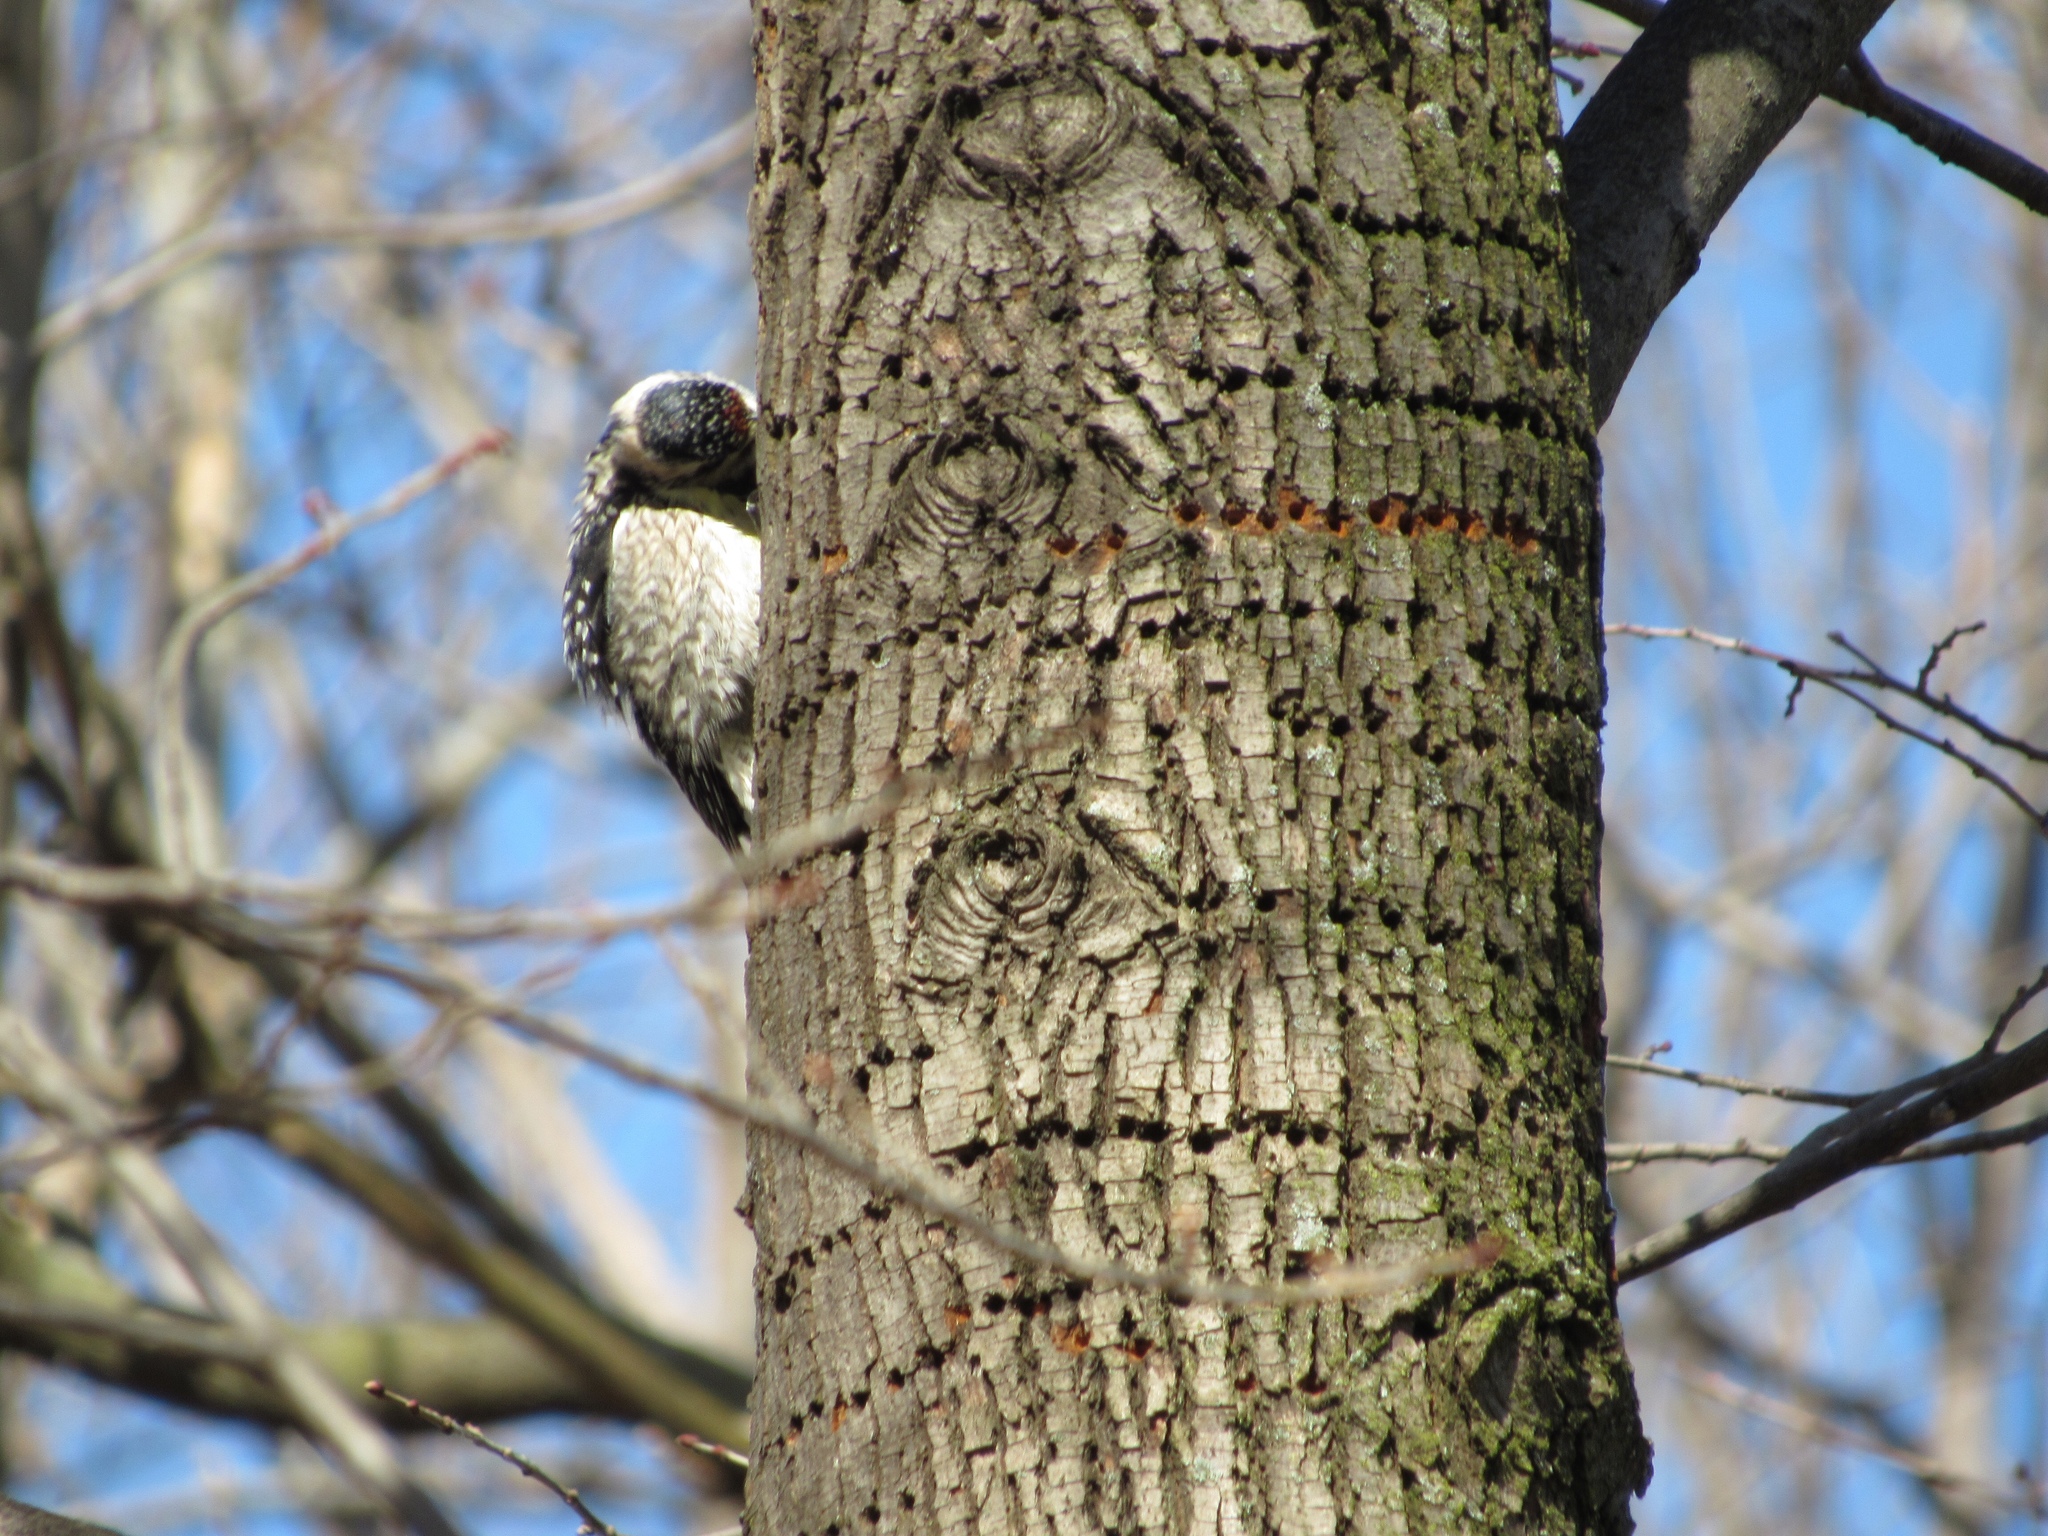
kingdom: Animalia
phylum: Chordata
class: Aves
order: Piciformes
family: Picidae
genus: Sphyrapicus
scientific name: Sphyrapicus varius
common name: Yellow-bellied sapsucker
